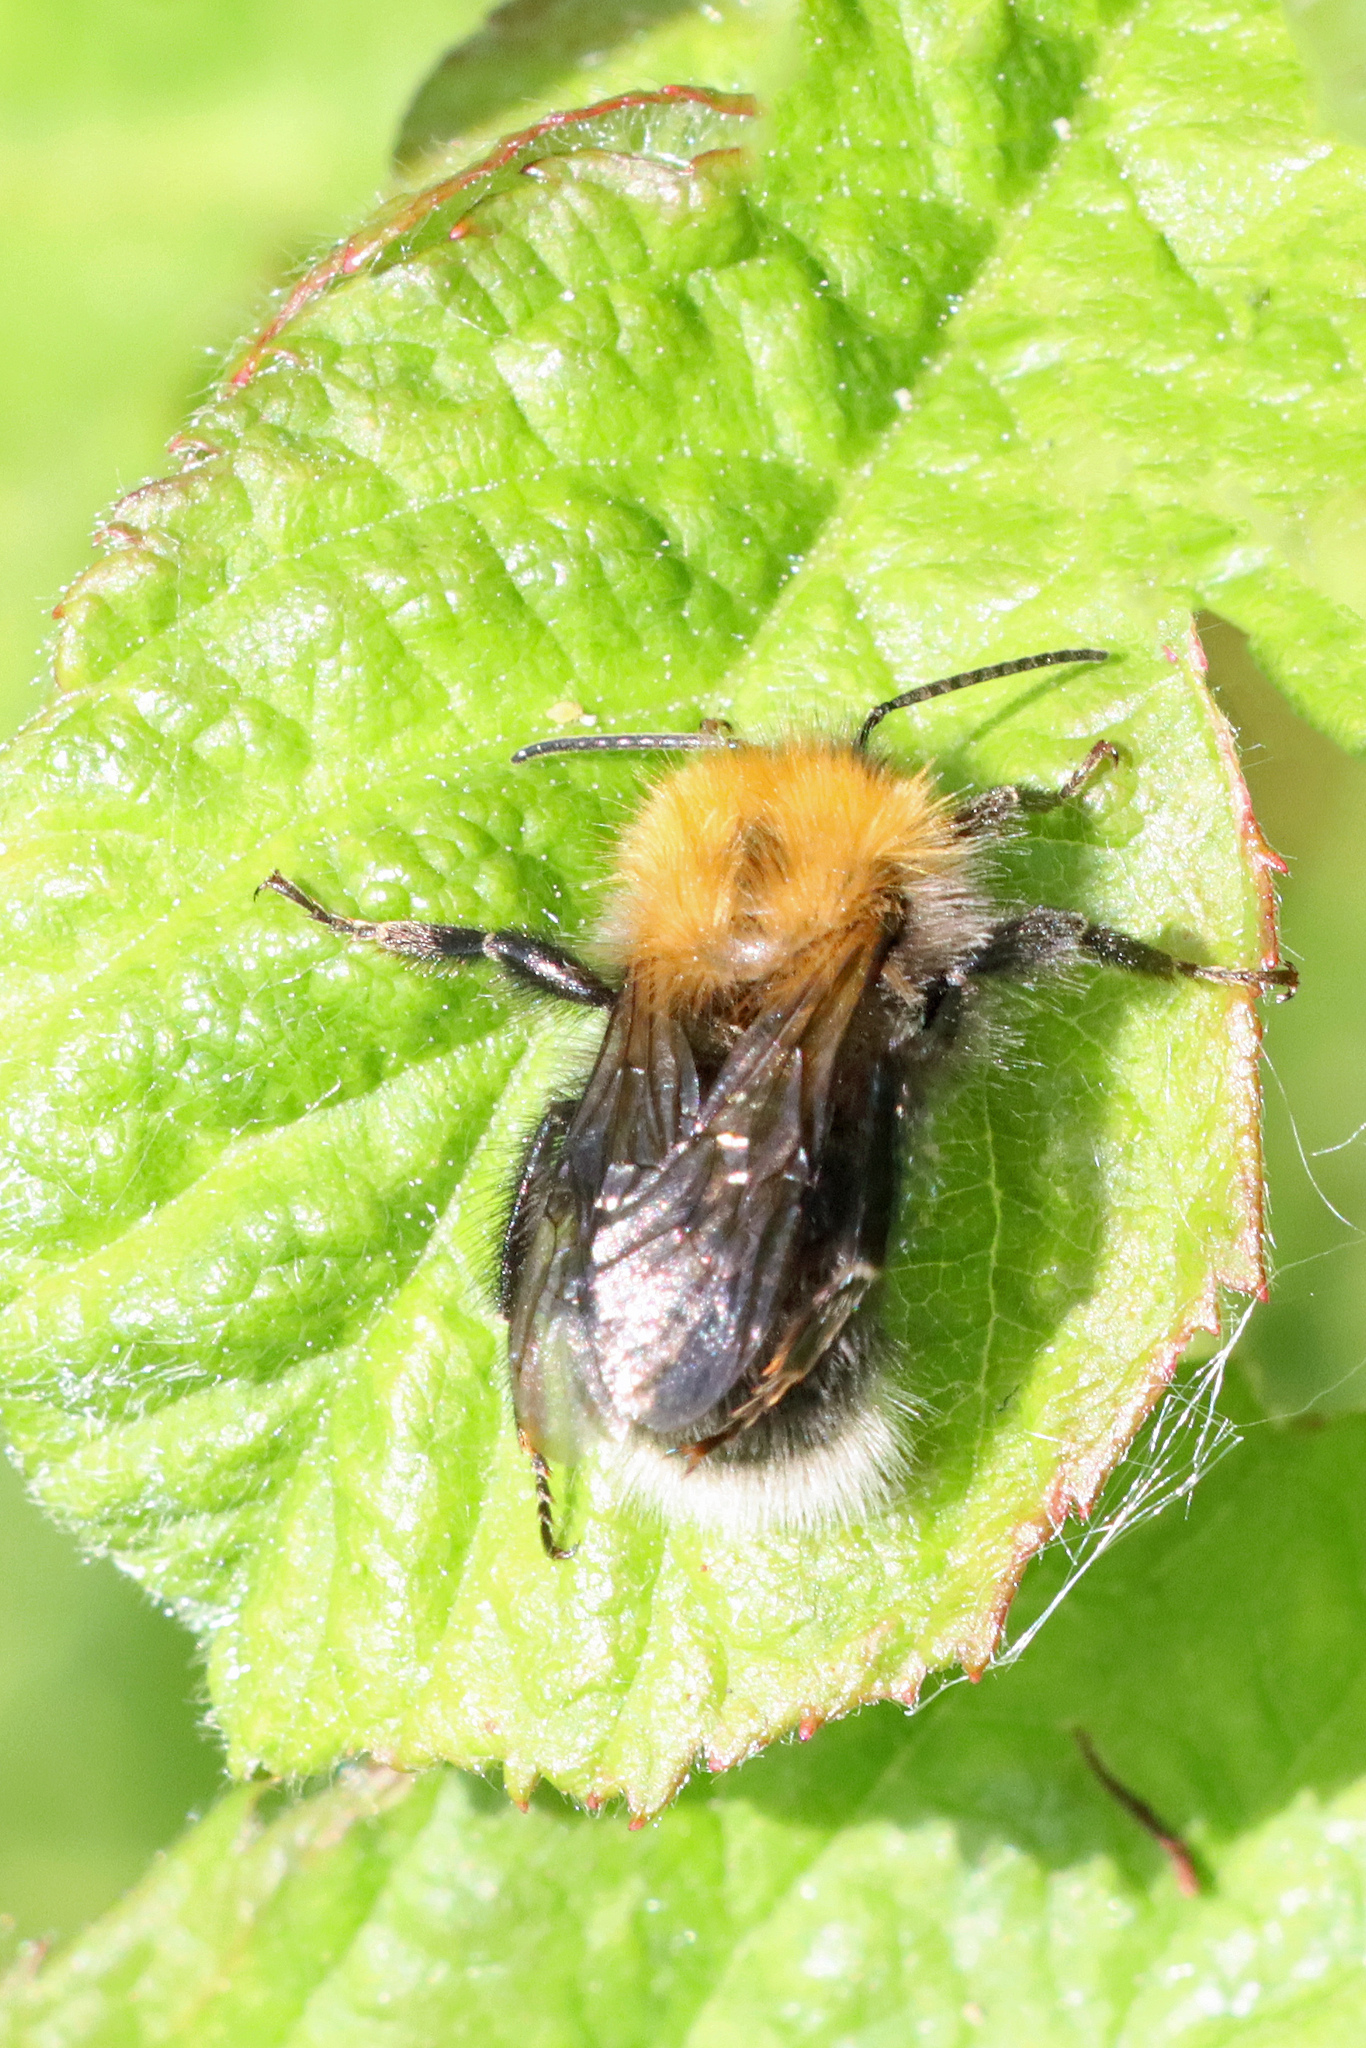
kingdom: Animalia
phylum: Arthropoda
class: Insecta
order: Hymenoptera
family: Apidae
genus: Bombus
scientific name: Bombus hypnorum
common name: New garden bumblebee
